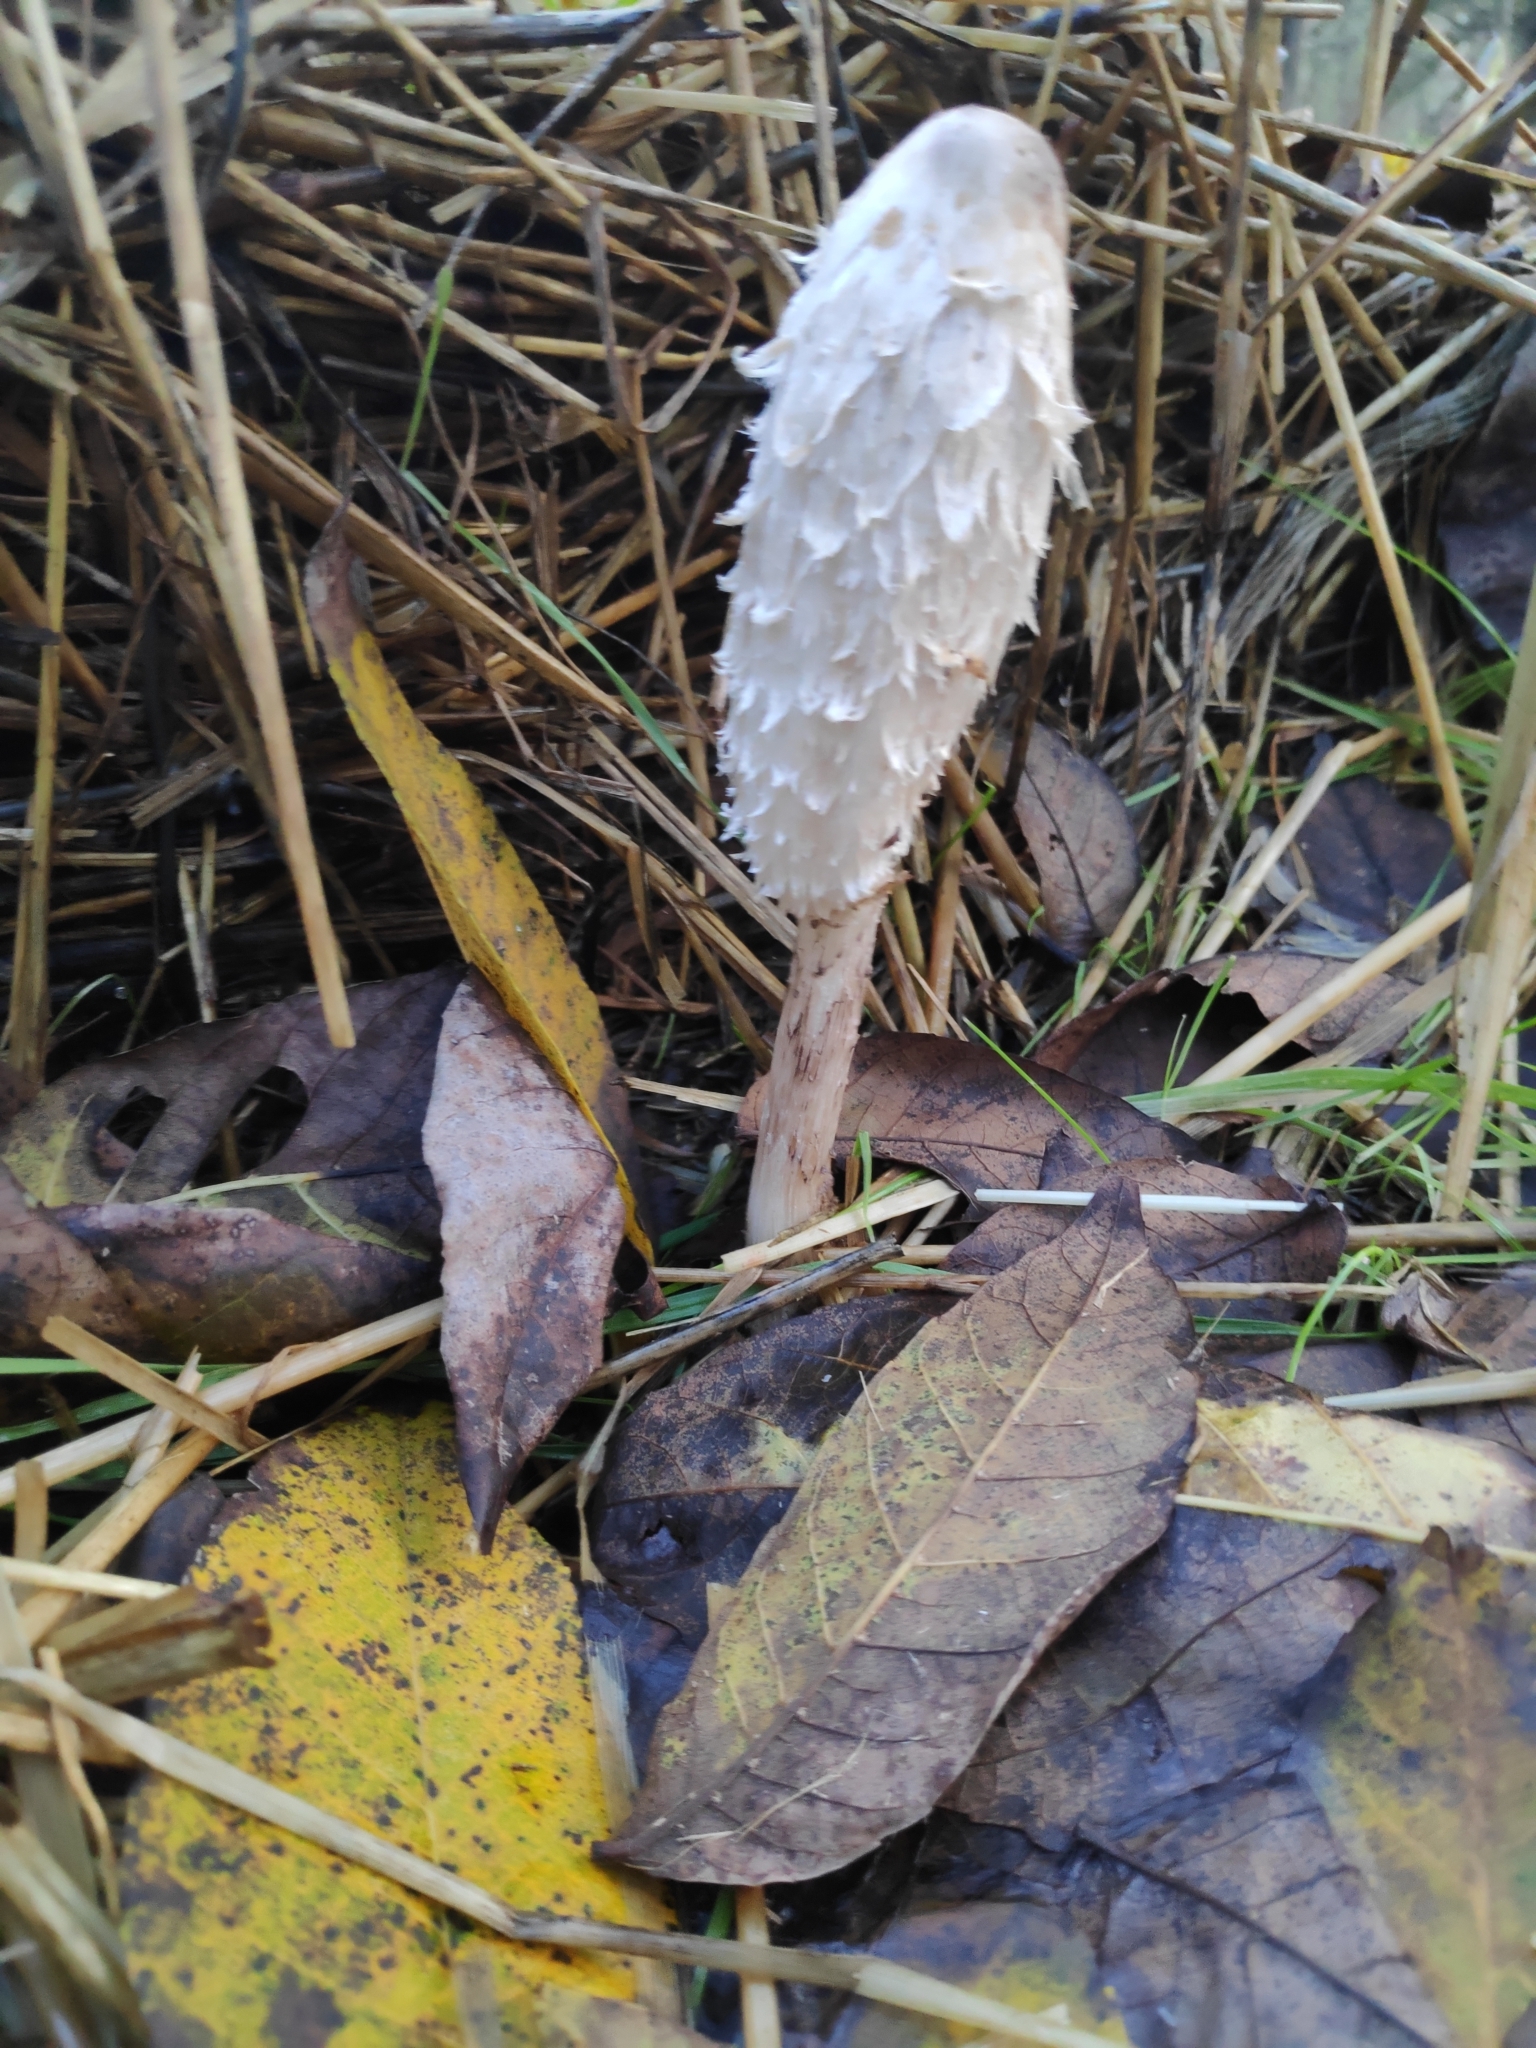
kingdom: Fungi
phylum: Basidiomycota
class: Agaricomycetes
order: Agaricales
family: Agaricaceae
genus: Coprinus
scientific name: Coprinus comatus
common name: Lawyer's wig
